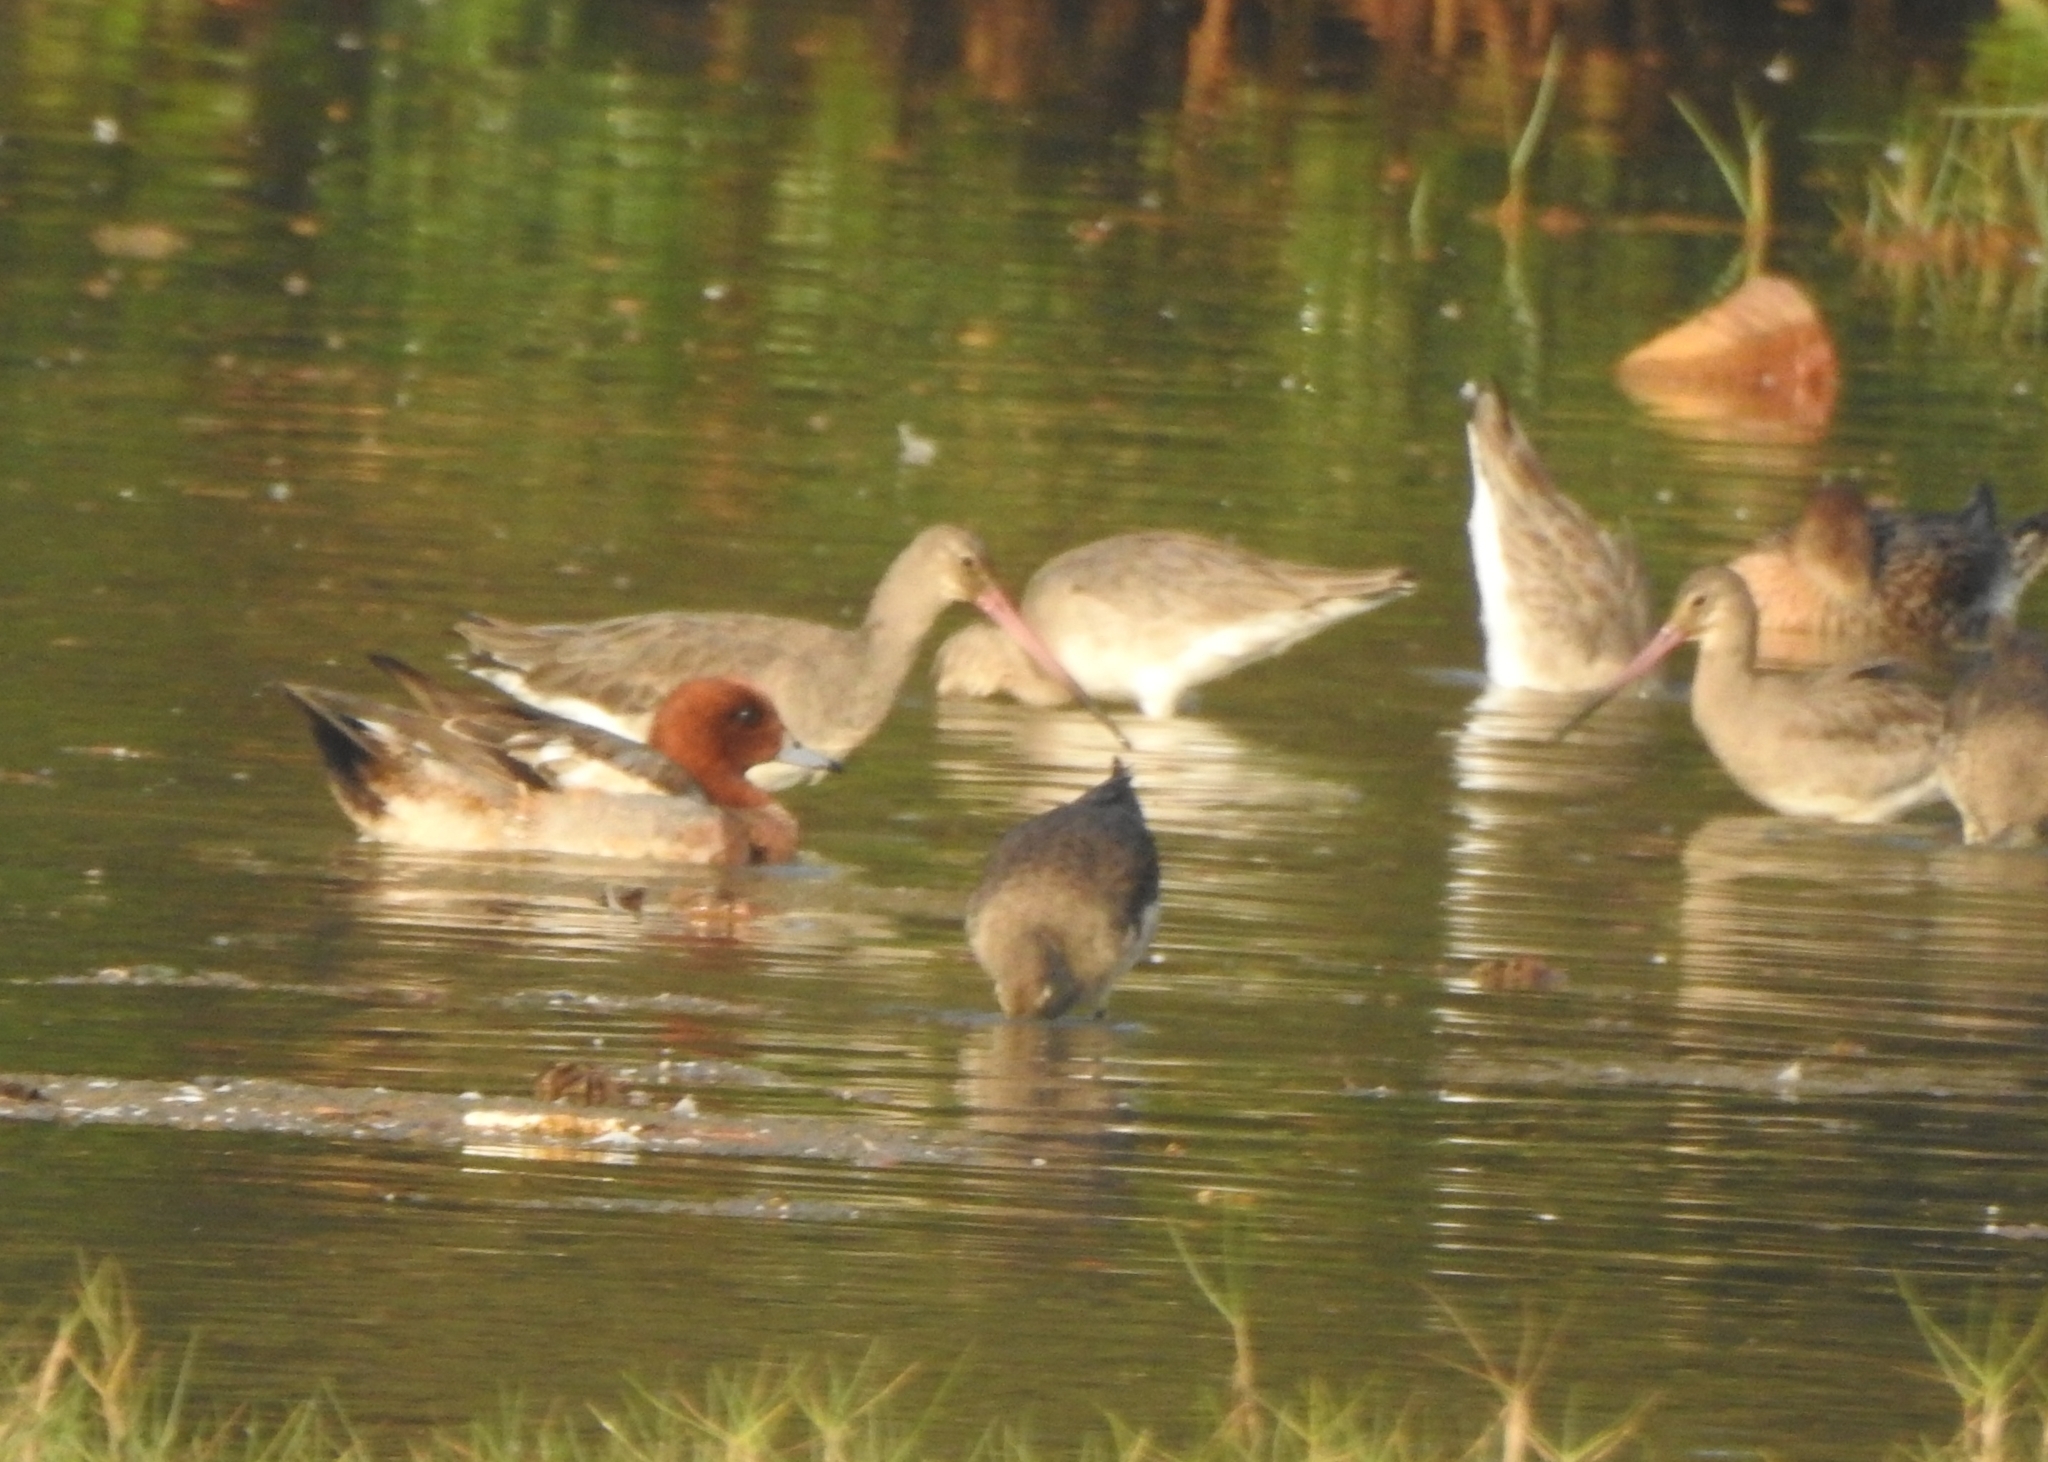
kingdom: Animalia
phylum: Chordata
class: Aves
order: Charadriiformes
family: Scolopacidae
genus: Limosa
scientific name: Limosa limosa
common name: Black-tailed godwit
